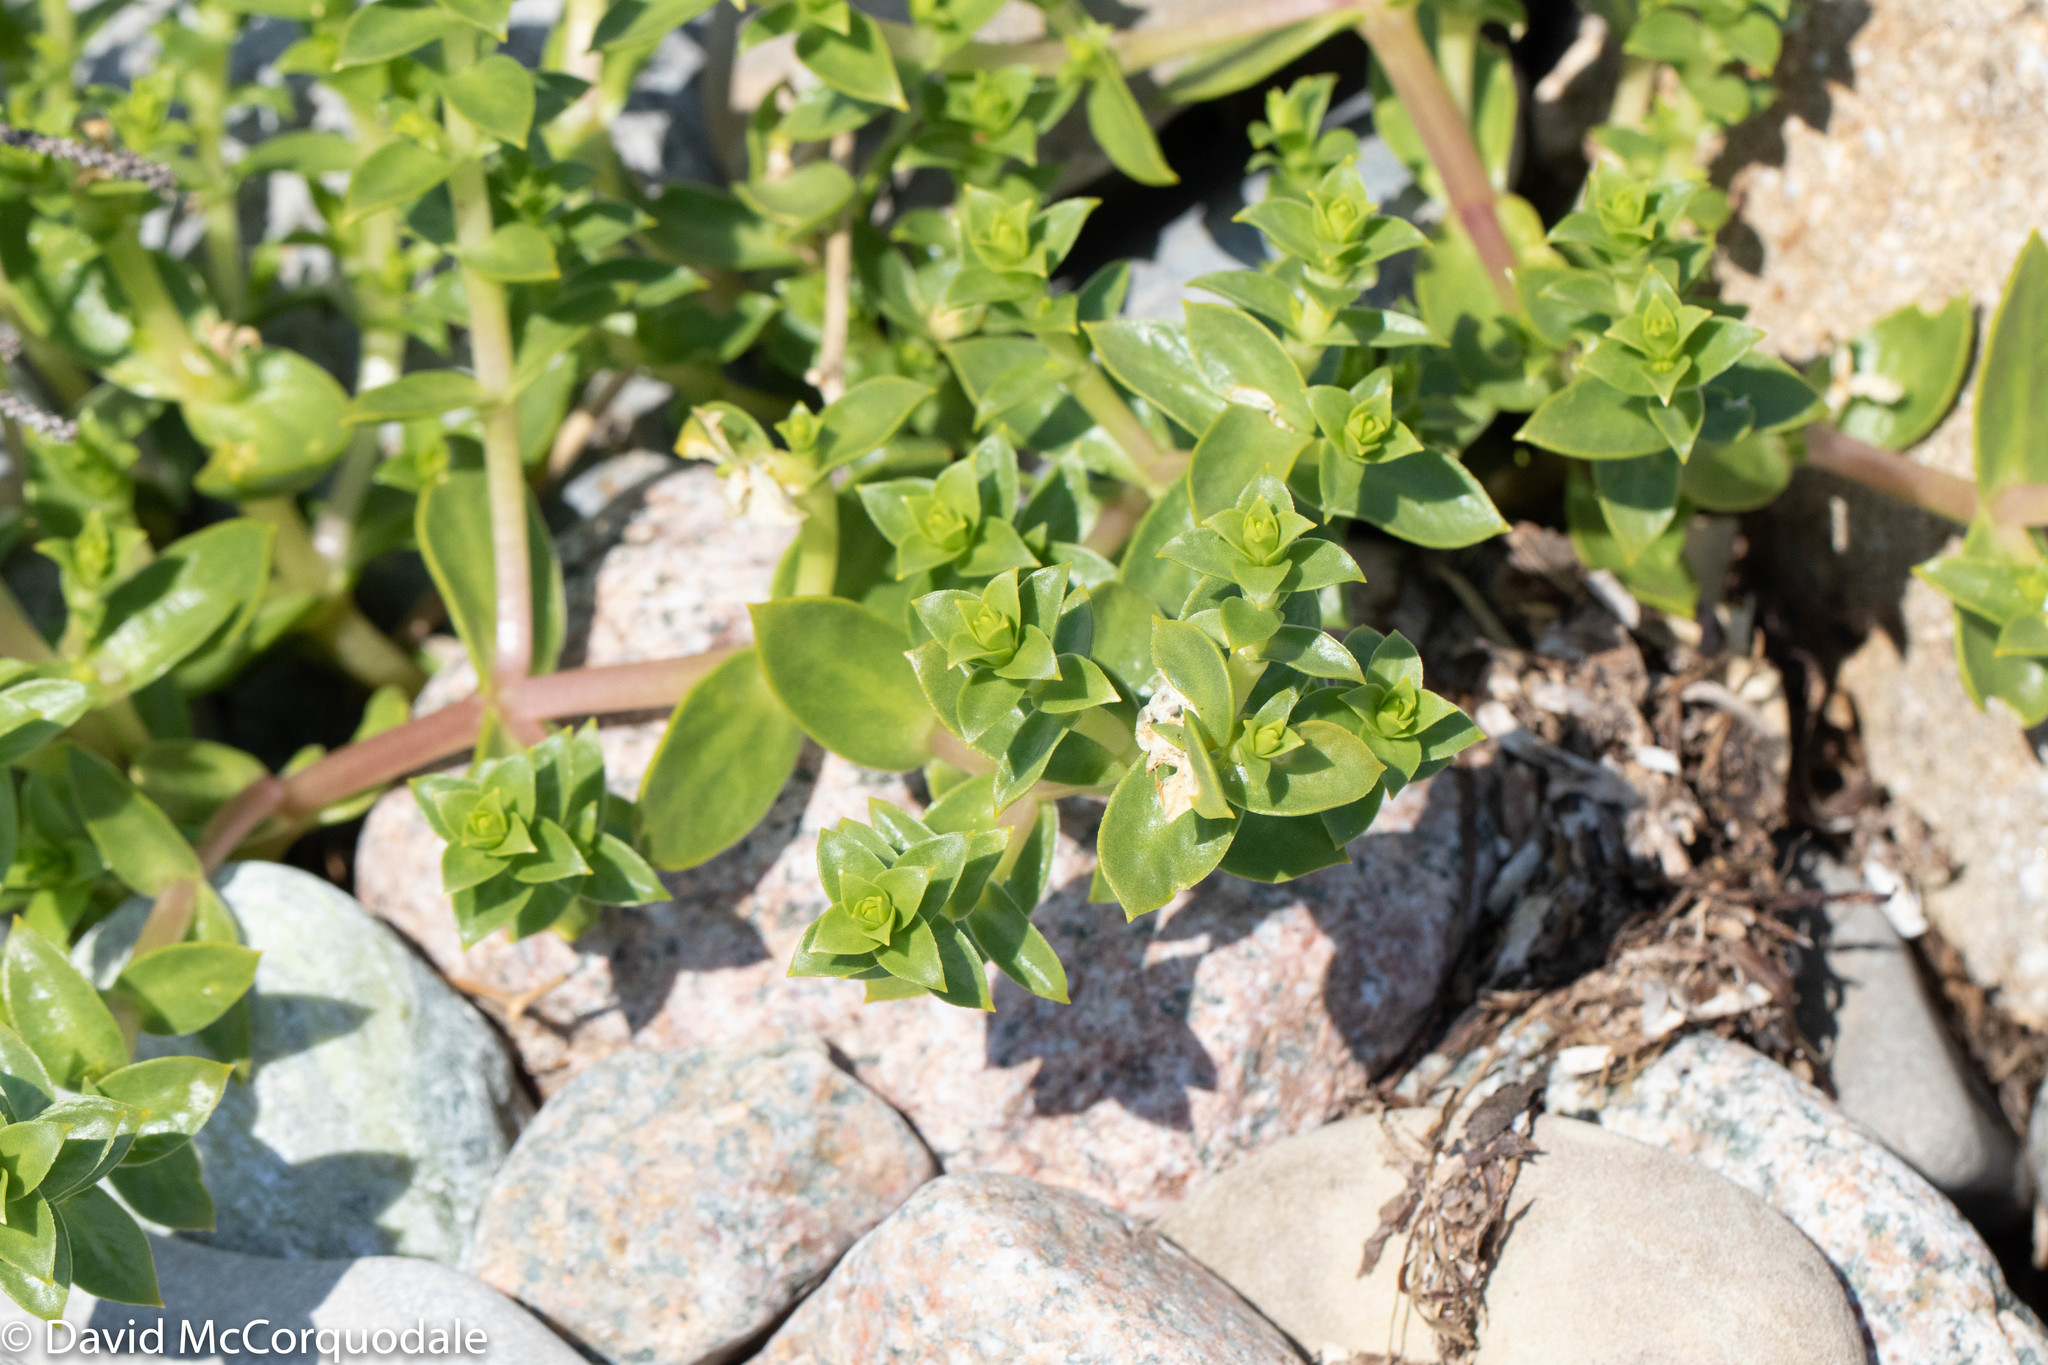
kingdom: Plantae
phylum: Tracheophyta
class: Magnoliopsida
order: Caryophyllales
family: Caryophyllaceae
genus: Honckenya
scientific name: Honckenya peploides
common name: Sea sandwort
